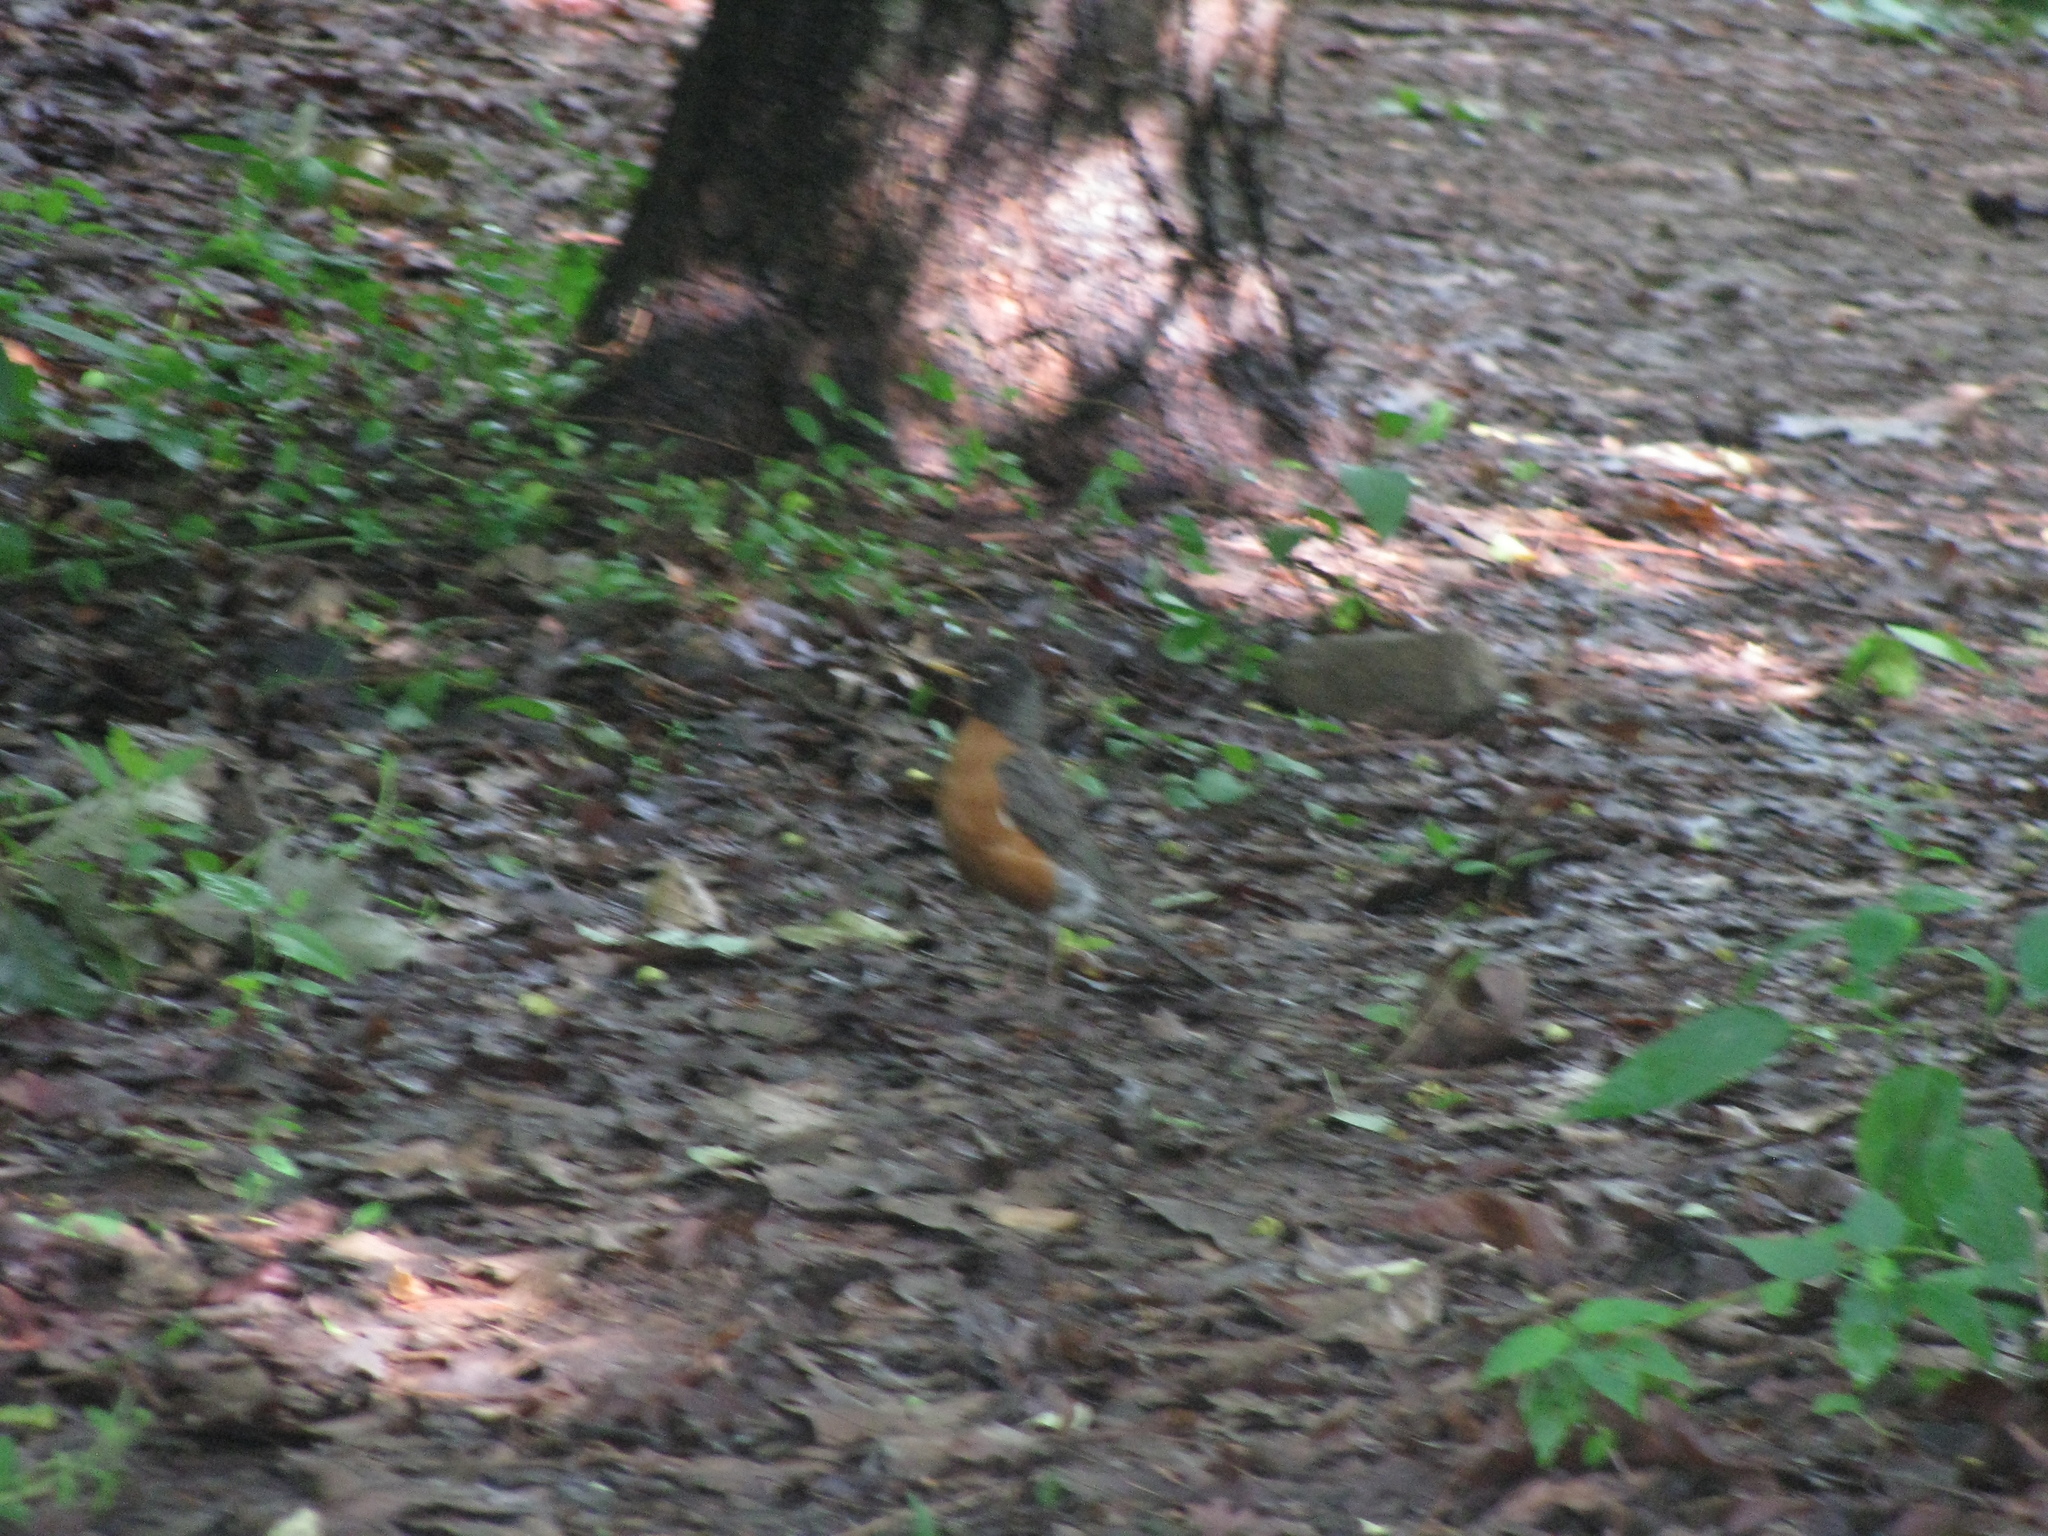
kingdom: Animalia
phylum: Chordata
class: Aves
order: Passeriformes
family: Turdidae
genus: Turdus
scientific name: Turdus migratorius
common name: American robin
